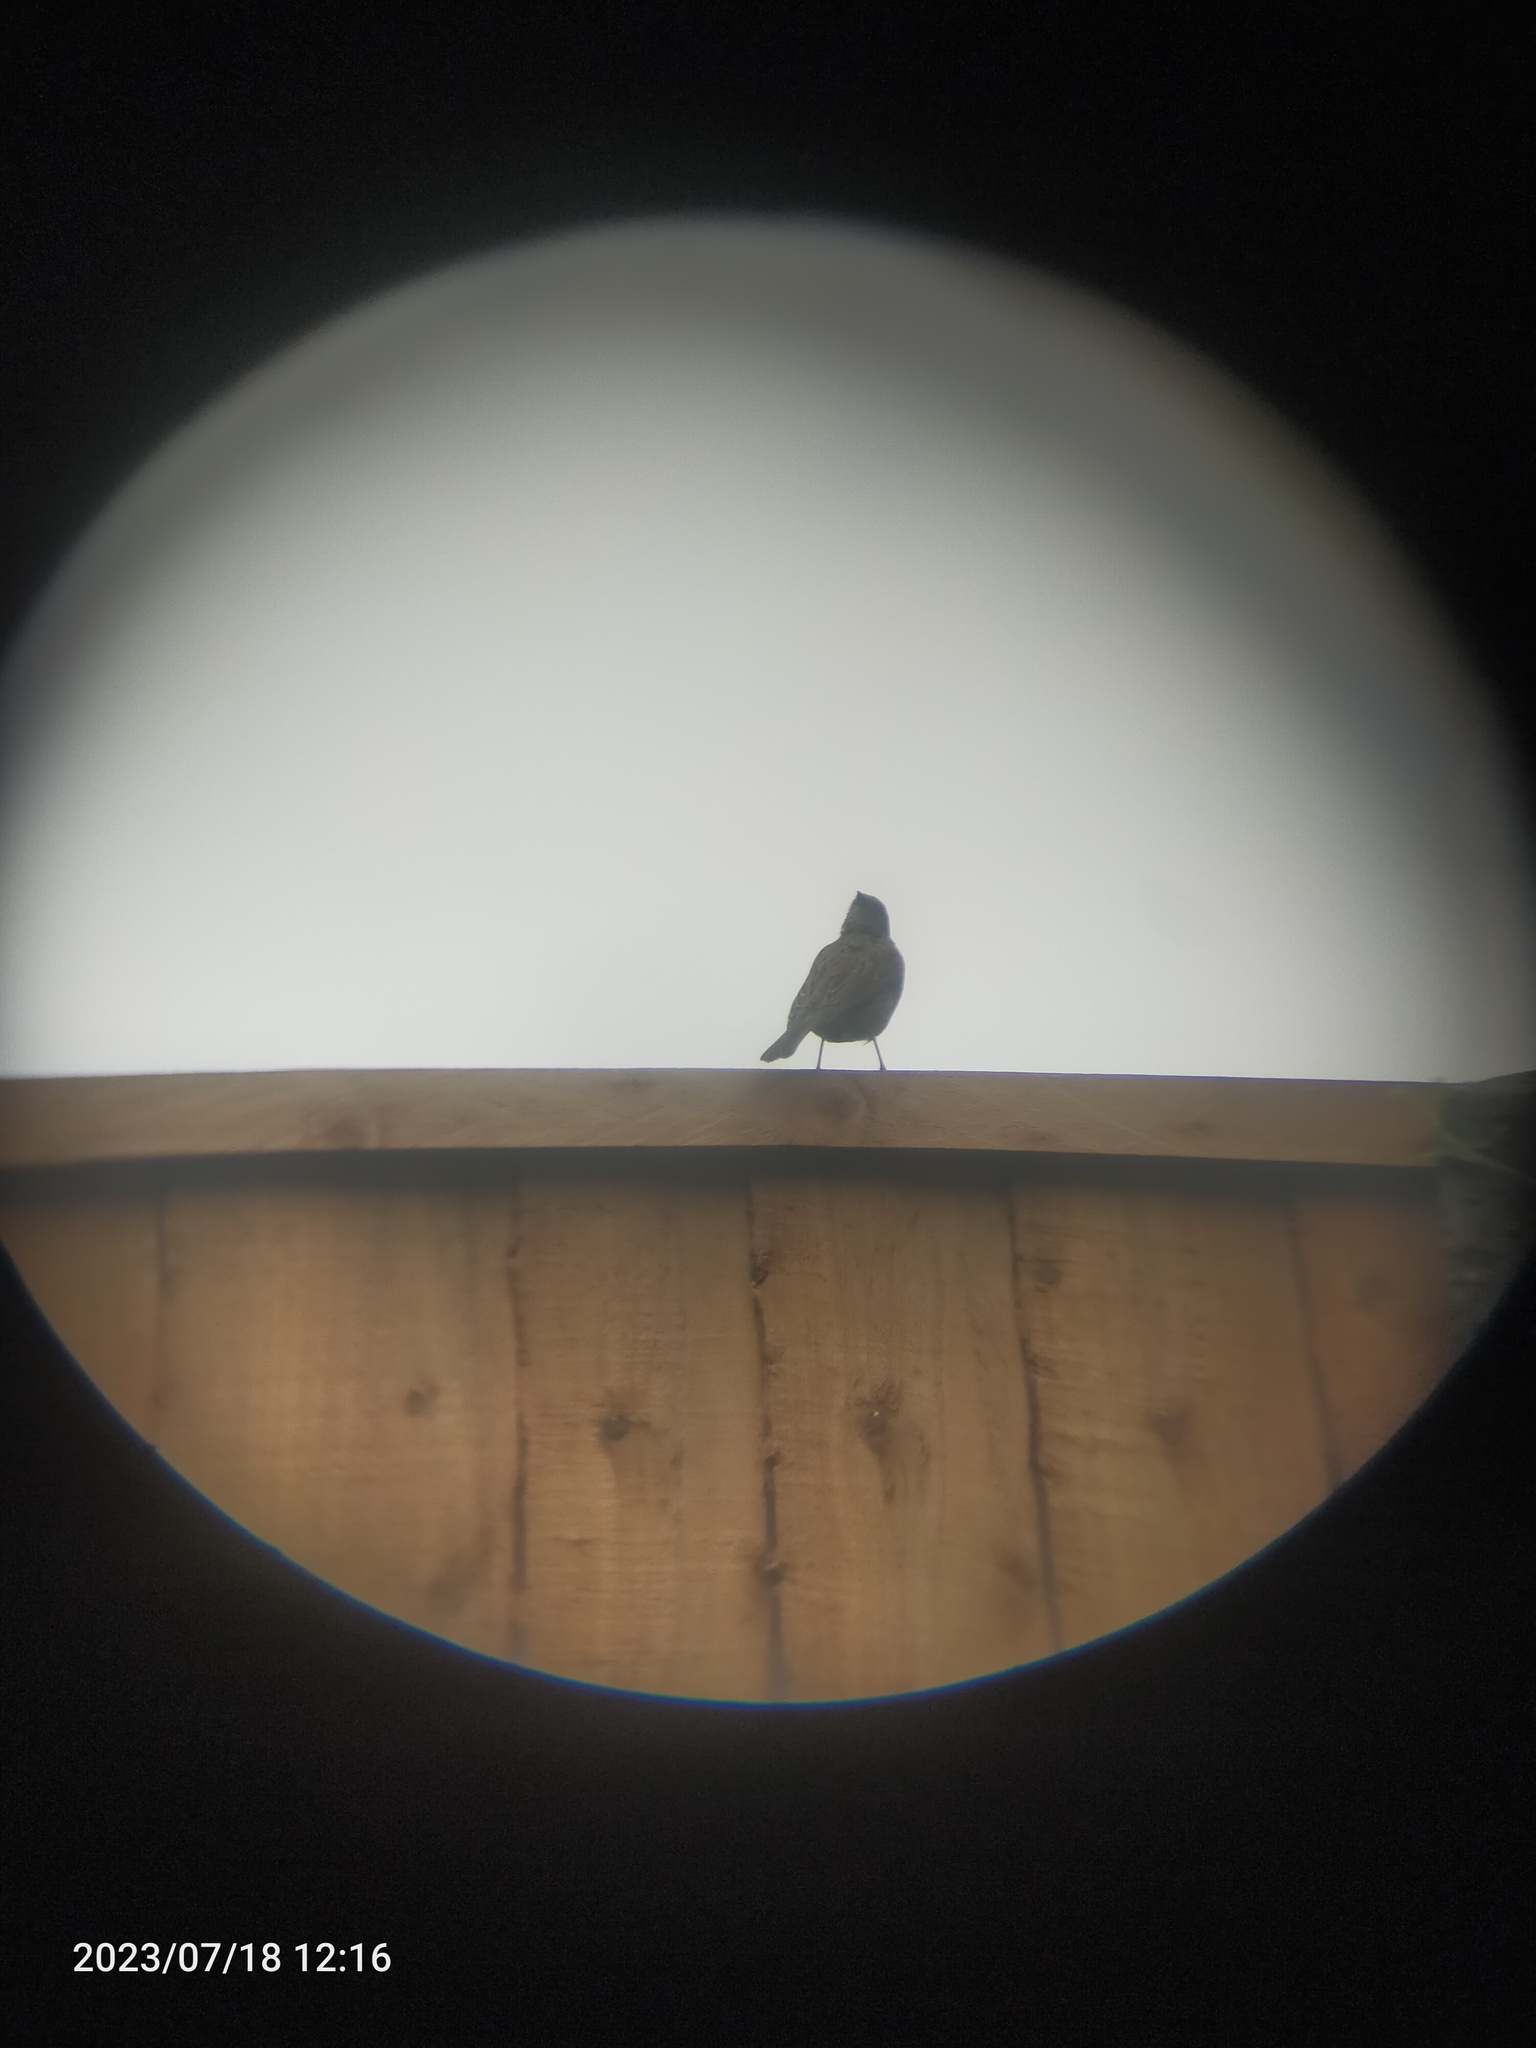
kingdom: Animalia
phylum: Chordata
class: Aves
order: Passeriformes
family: Prunellidae
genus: Prunella
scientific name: Prunella modularis
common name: Dunnock
